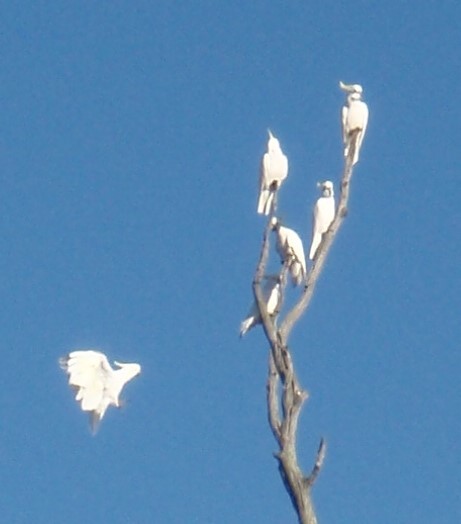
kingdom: Animalia
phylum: Chordata
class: Aves
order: Psittaciformes
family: Psittacidae
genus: Cacatua
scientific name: Cacatua galerita
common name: Sulphur-crested cockatoo
